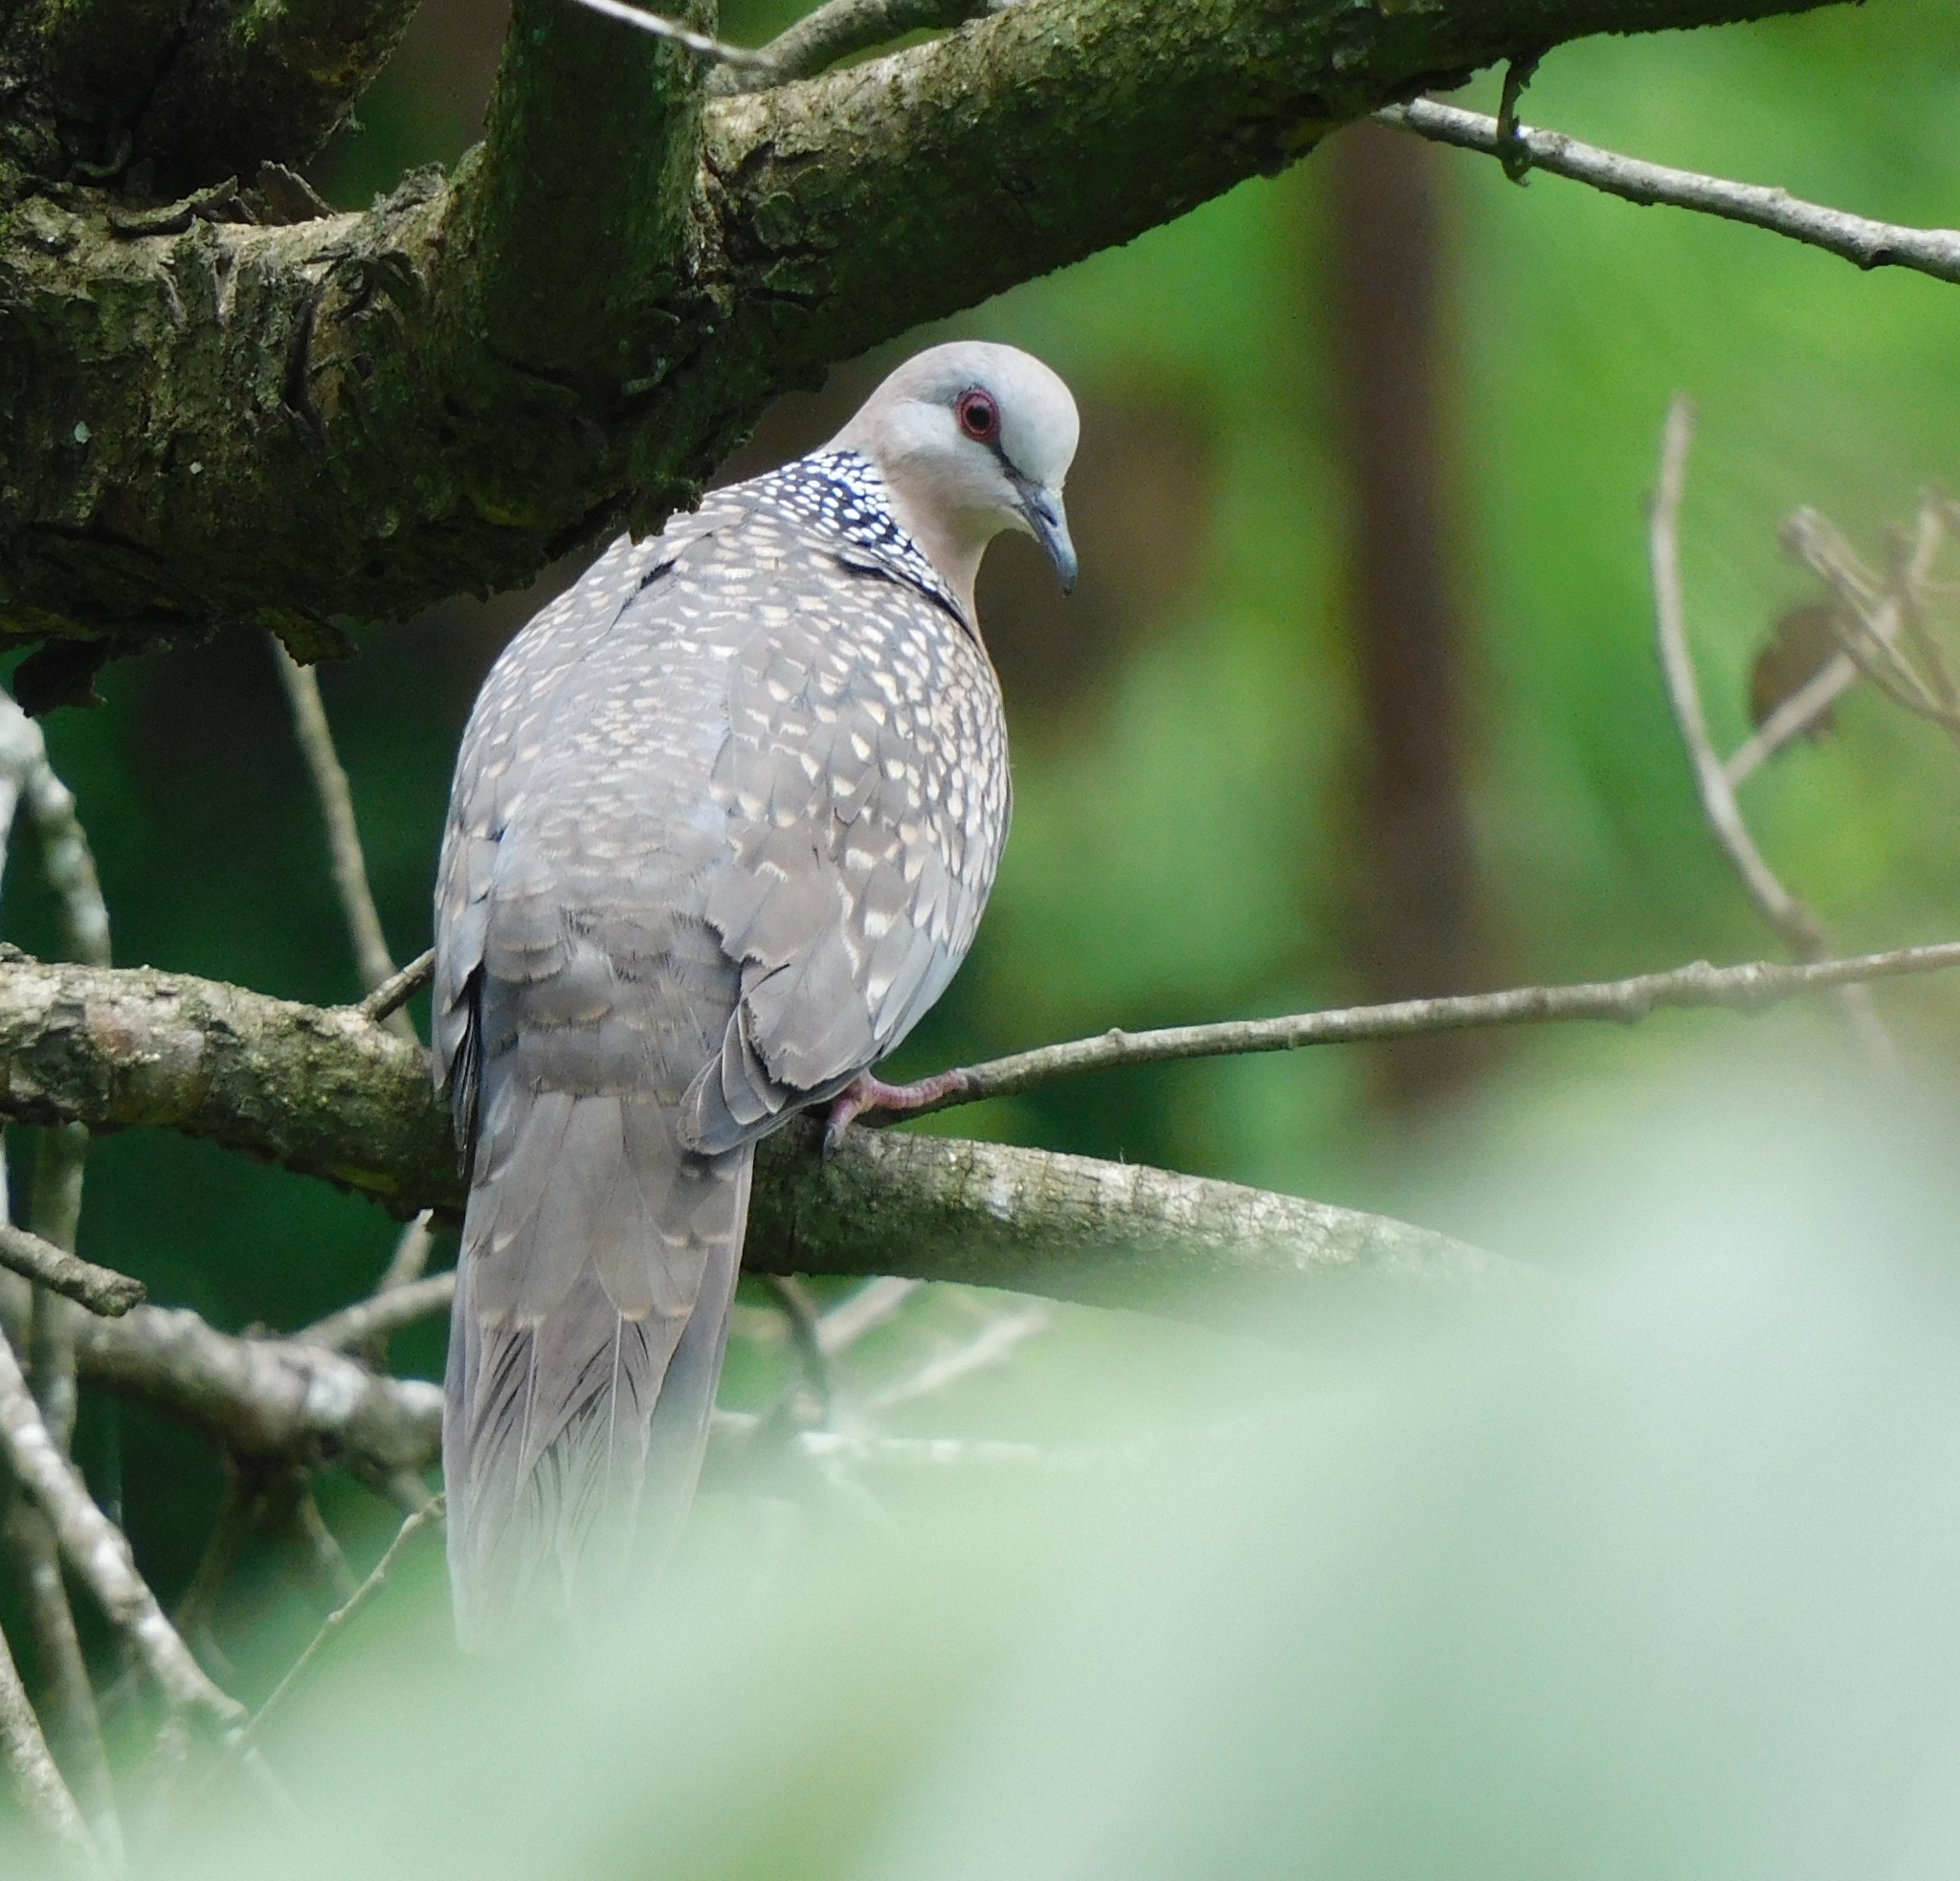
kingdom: Animalia
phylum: Chordata
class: Aves
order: Columbiformes
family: Columbidae
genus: Spilopelia
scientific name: Spilopelia chinensis
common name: Spotted dove
